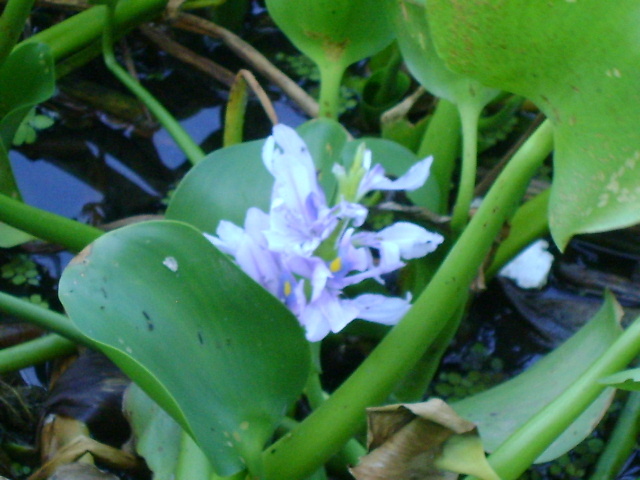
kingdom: Plantae
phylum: Tracheophyta
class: Liliopsida
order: Commelinales
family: Pontederiaceae
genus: Pontederia
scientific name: Pontederia crassipes
